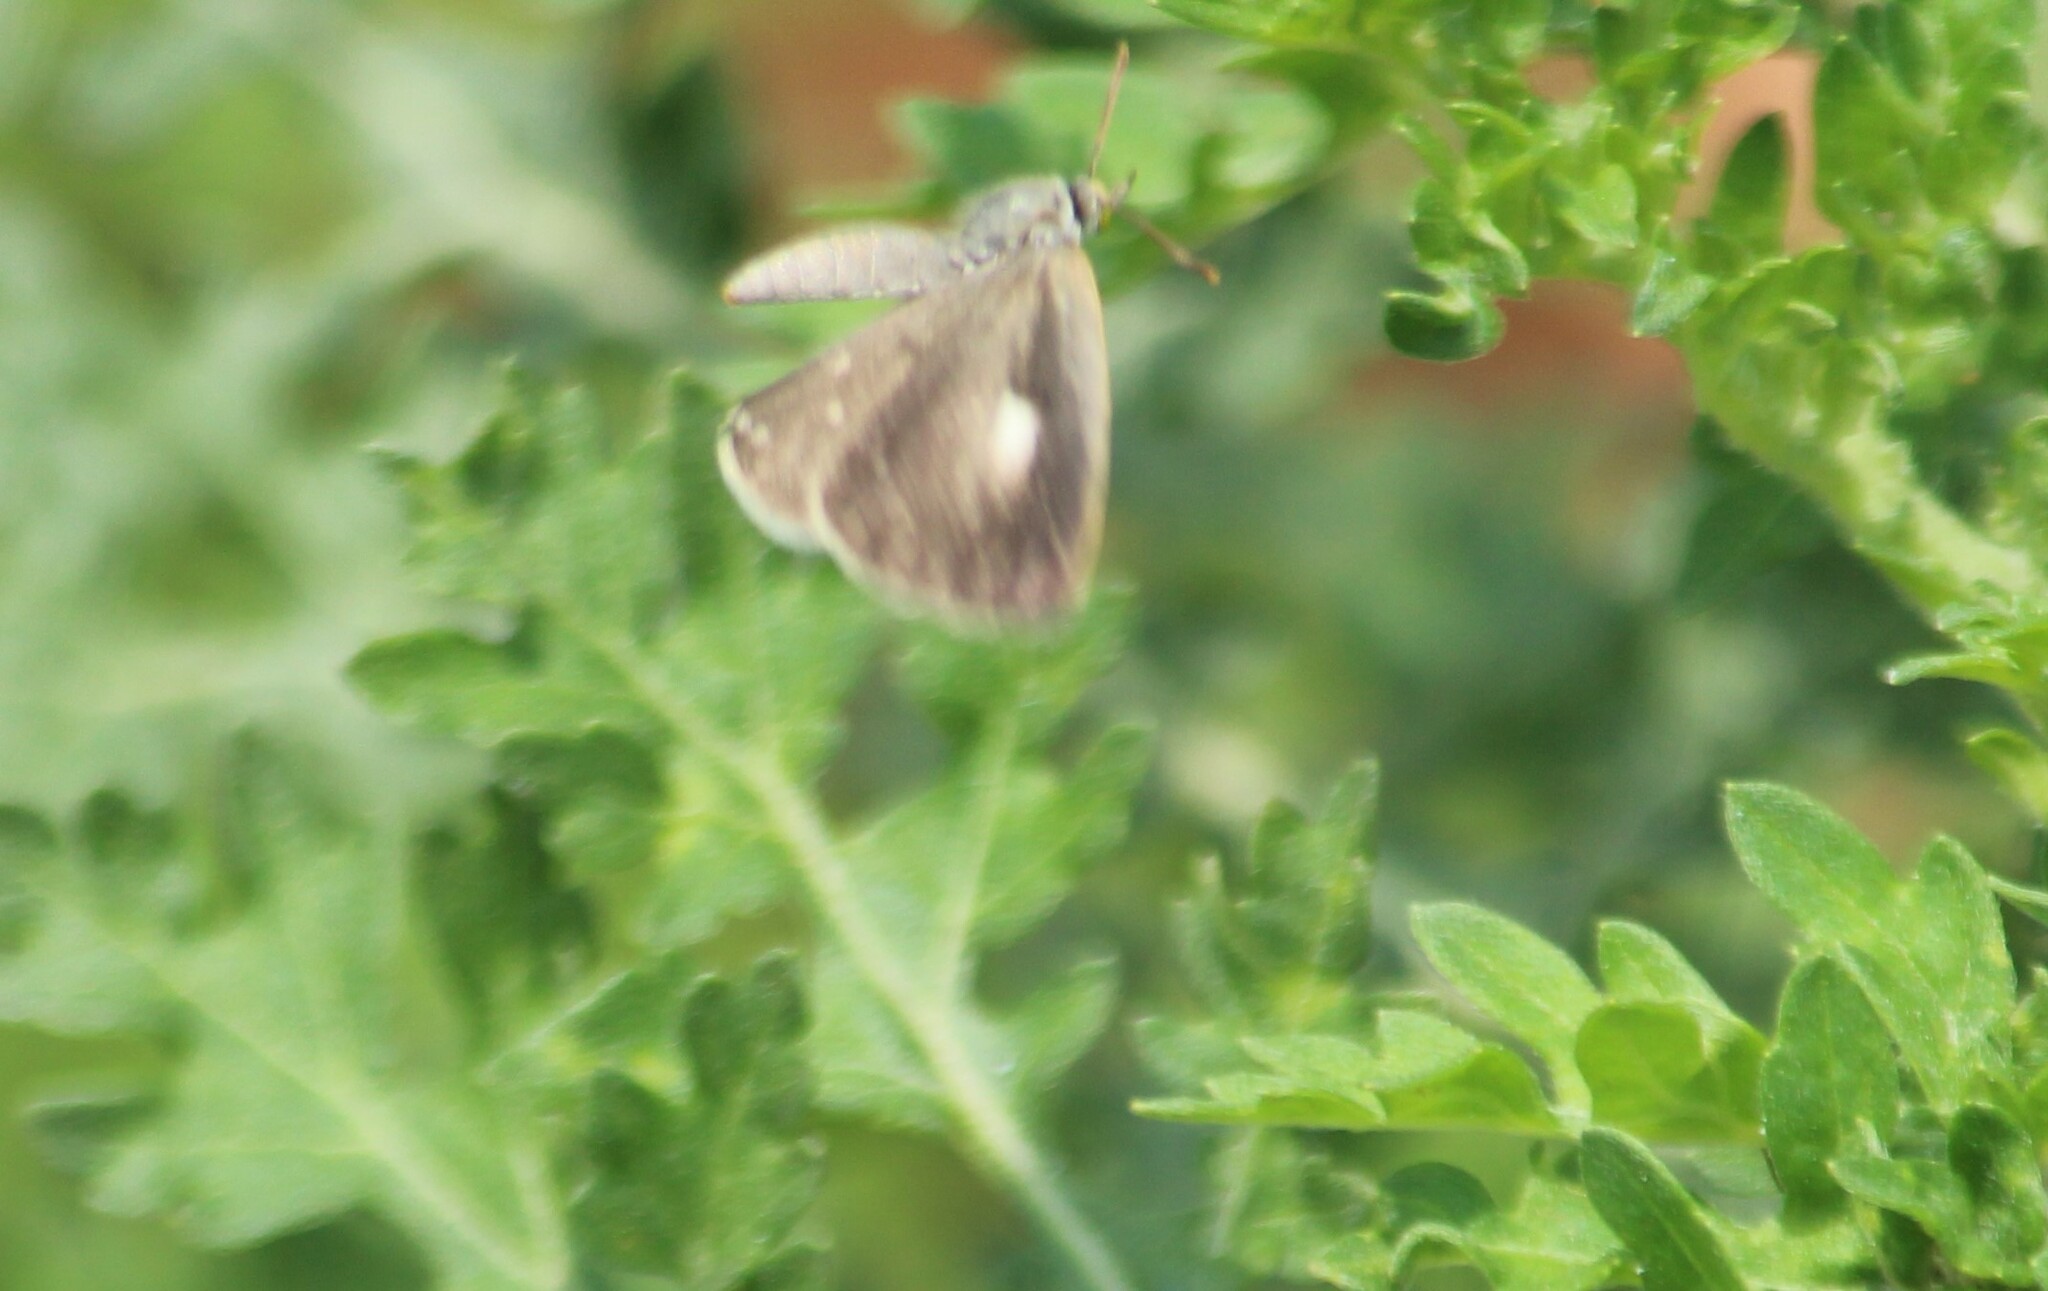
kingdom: Animalia
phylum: Arthropoda
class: Insecta
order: Lepidoptera
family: Lycaenidae
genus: Spalgis
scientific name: Spalgis epius
